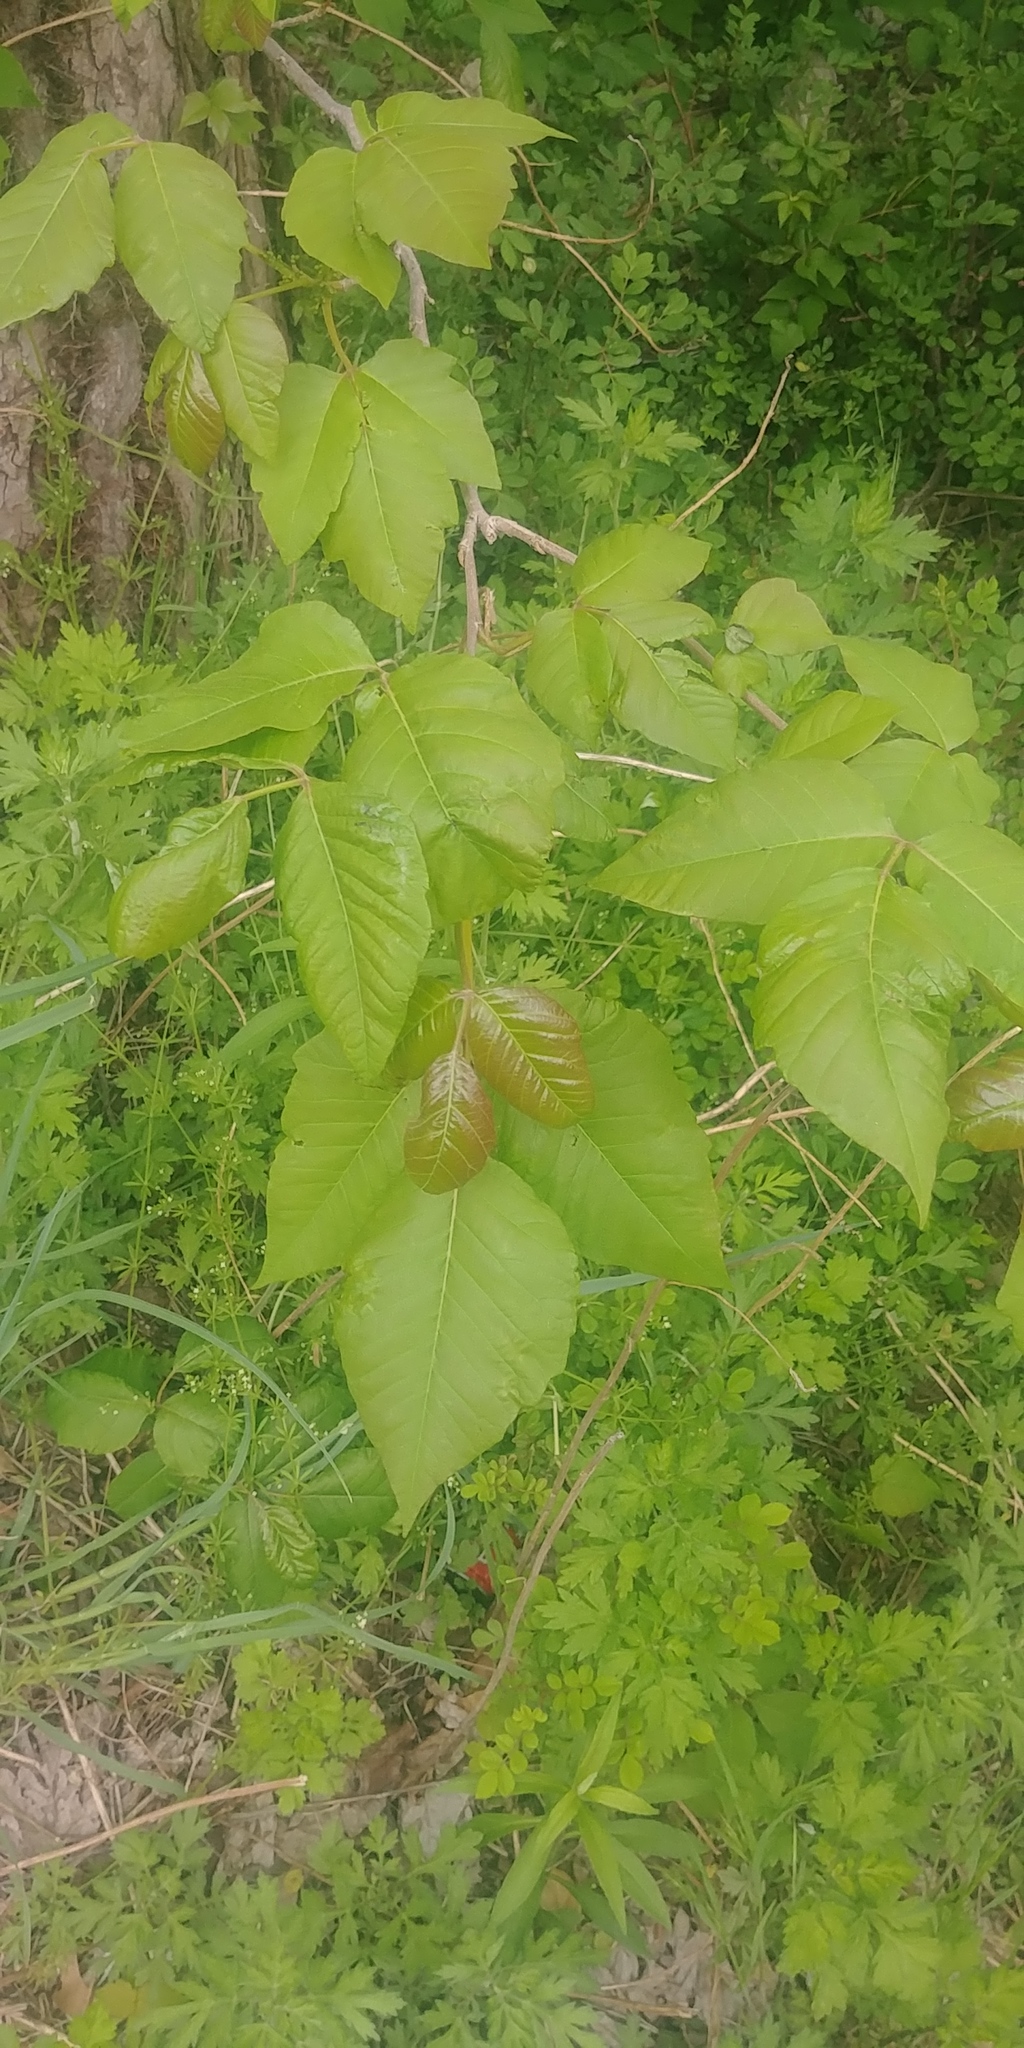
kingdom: Plantae
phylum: Tracheophyta
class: Magnoliopsida
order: Sapindales
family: Anacardiaceae
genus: Toxicodendron
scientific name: Toxicodendron radicans
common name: Poison ivy
